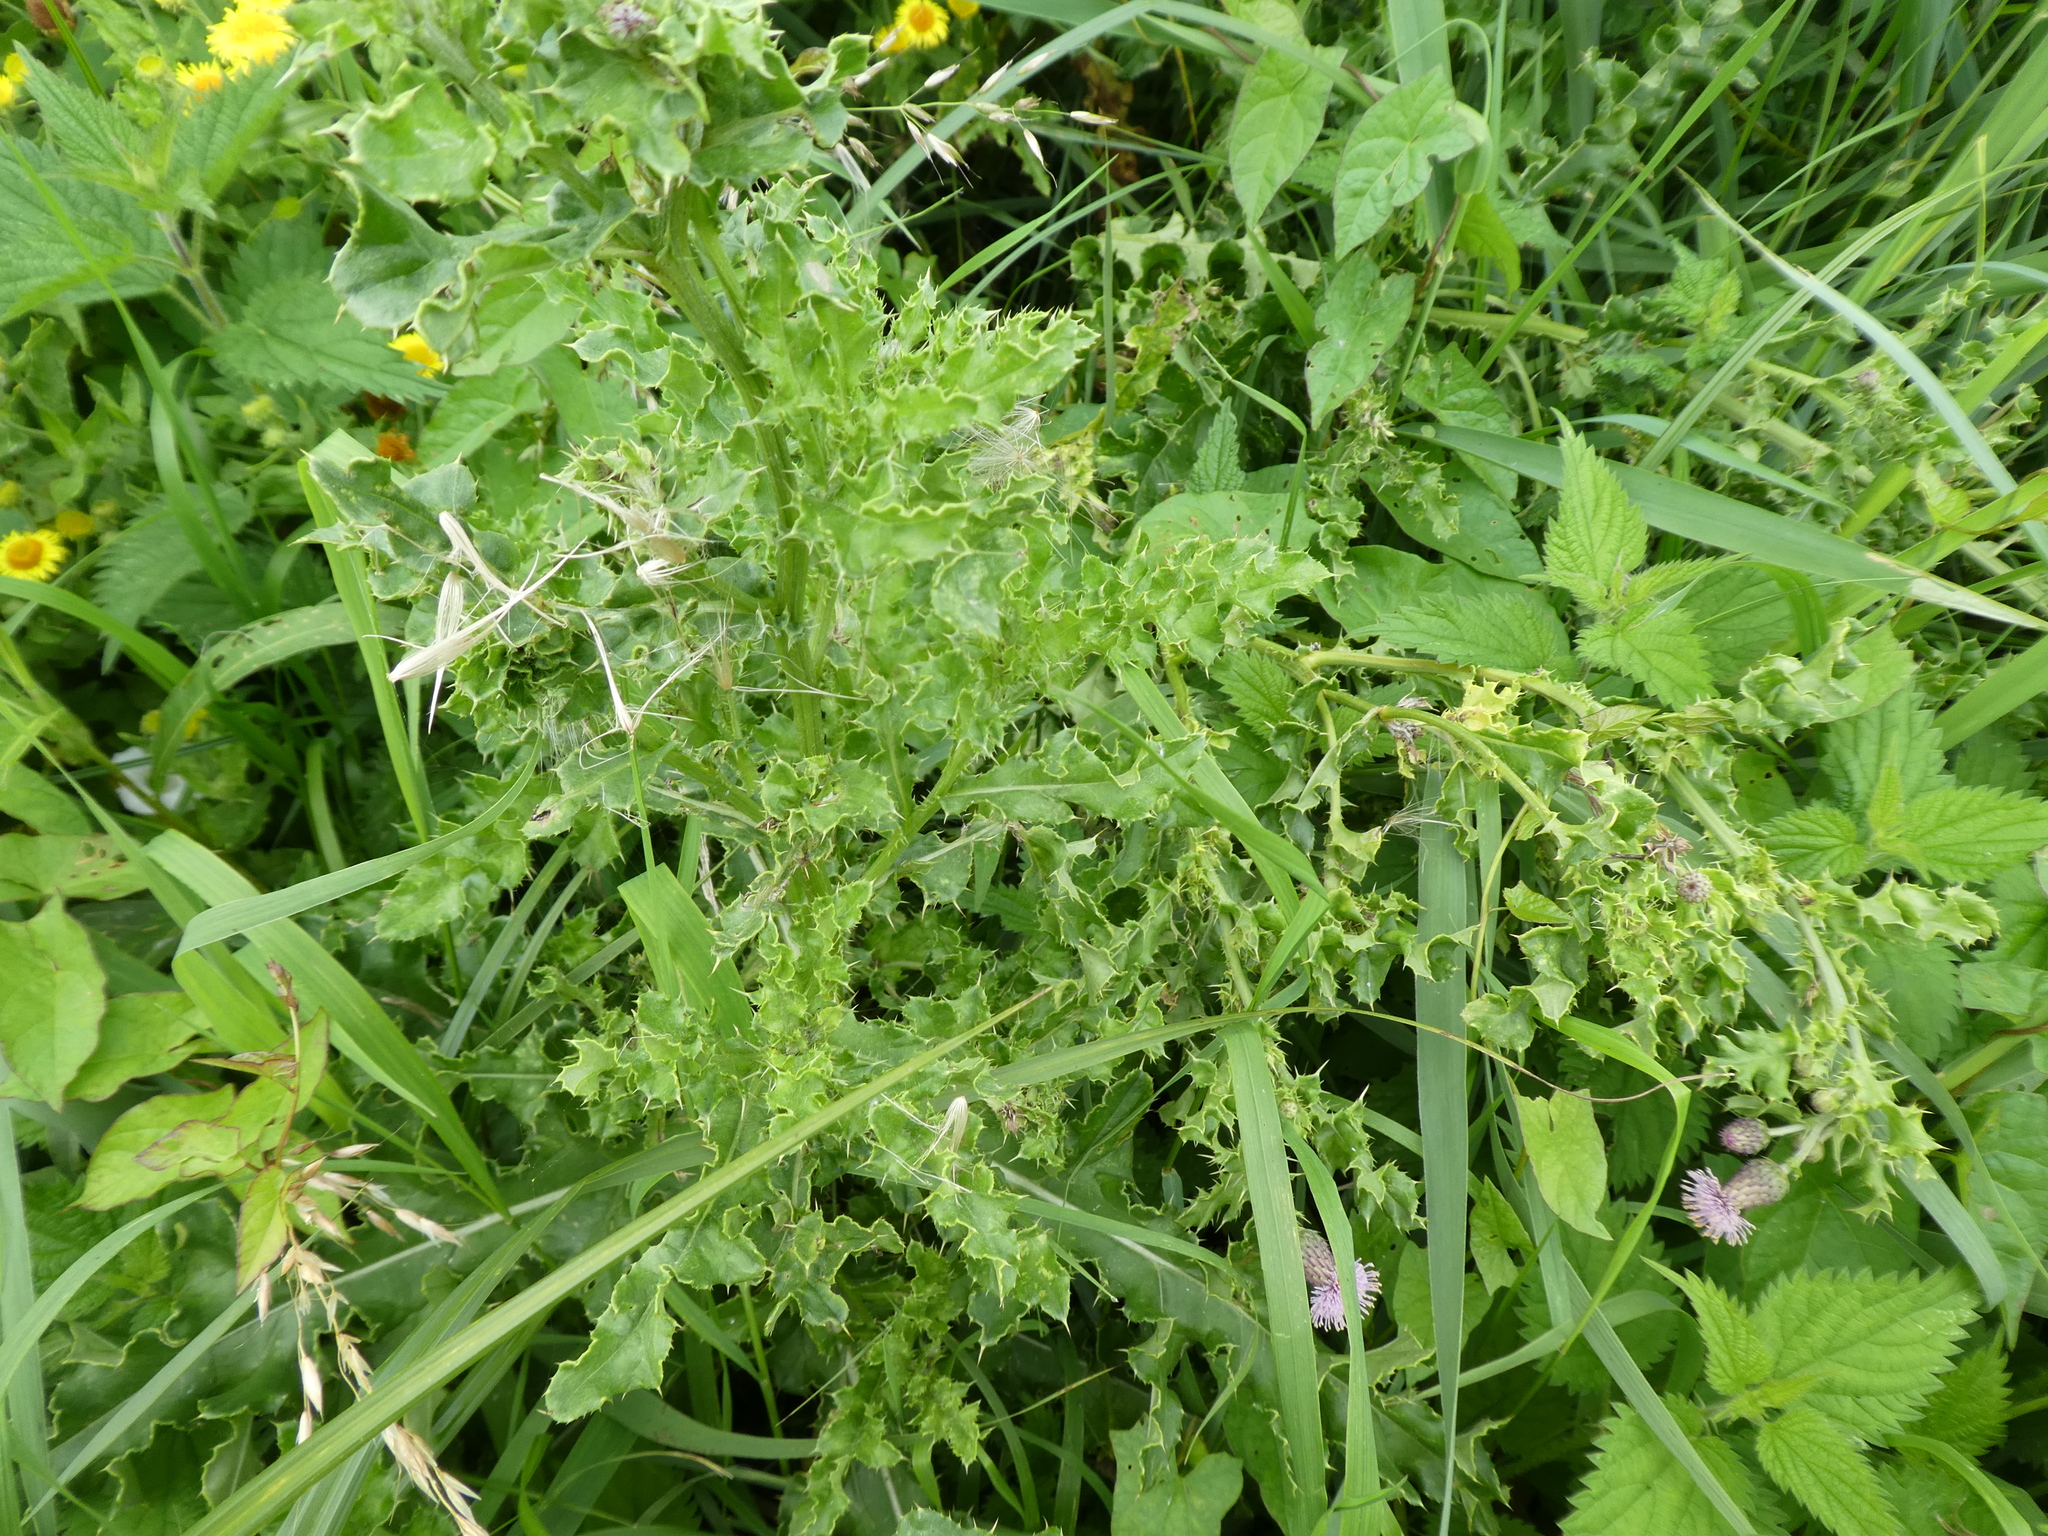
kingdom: Plantae
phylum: Tracheophyta
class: Magnoliopsida
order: Asterales
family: Asteraceae
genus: Cirsium
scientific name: Cirsium arvense
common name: Creeping thistle
